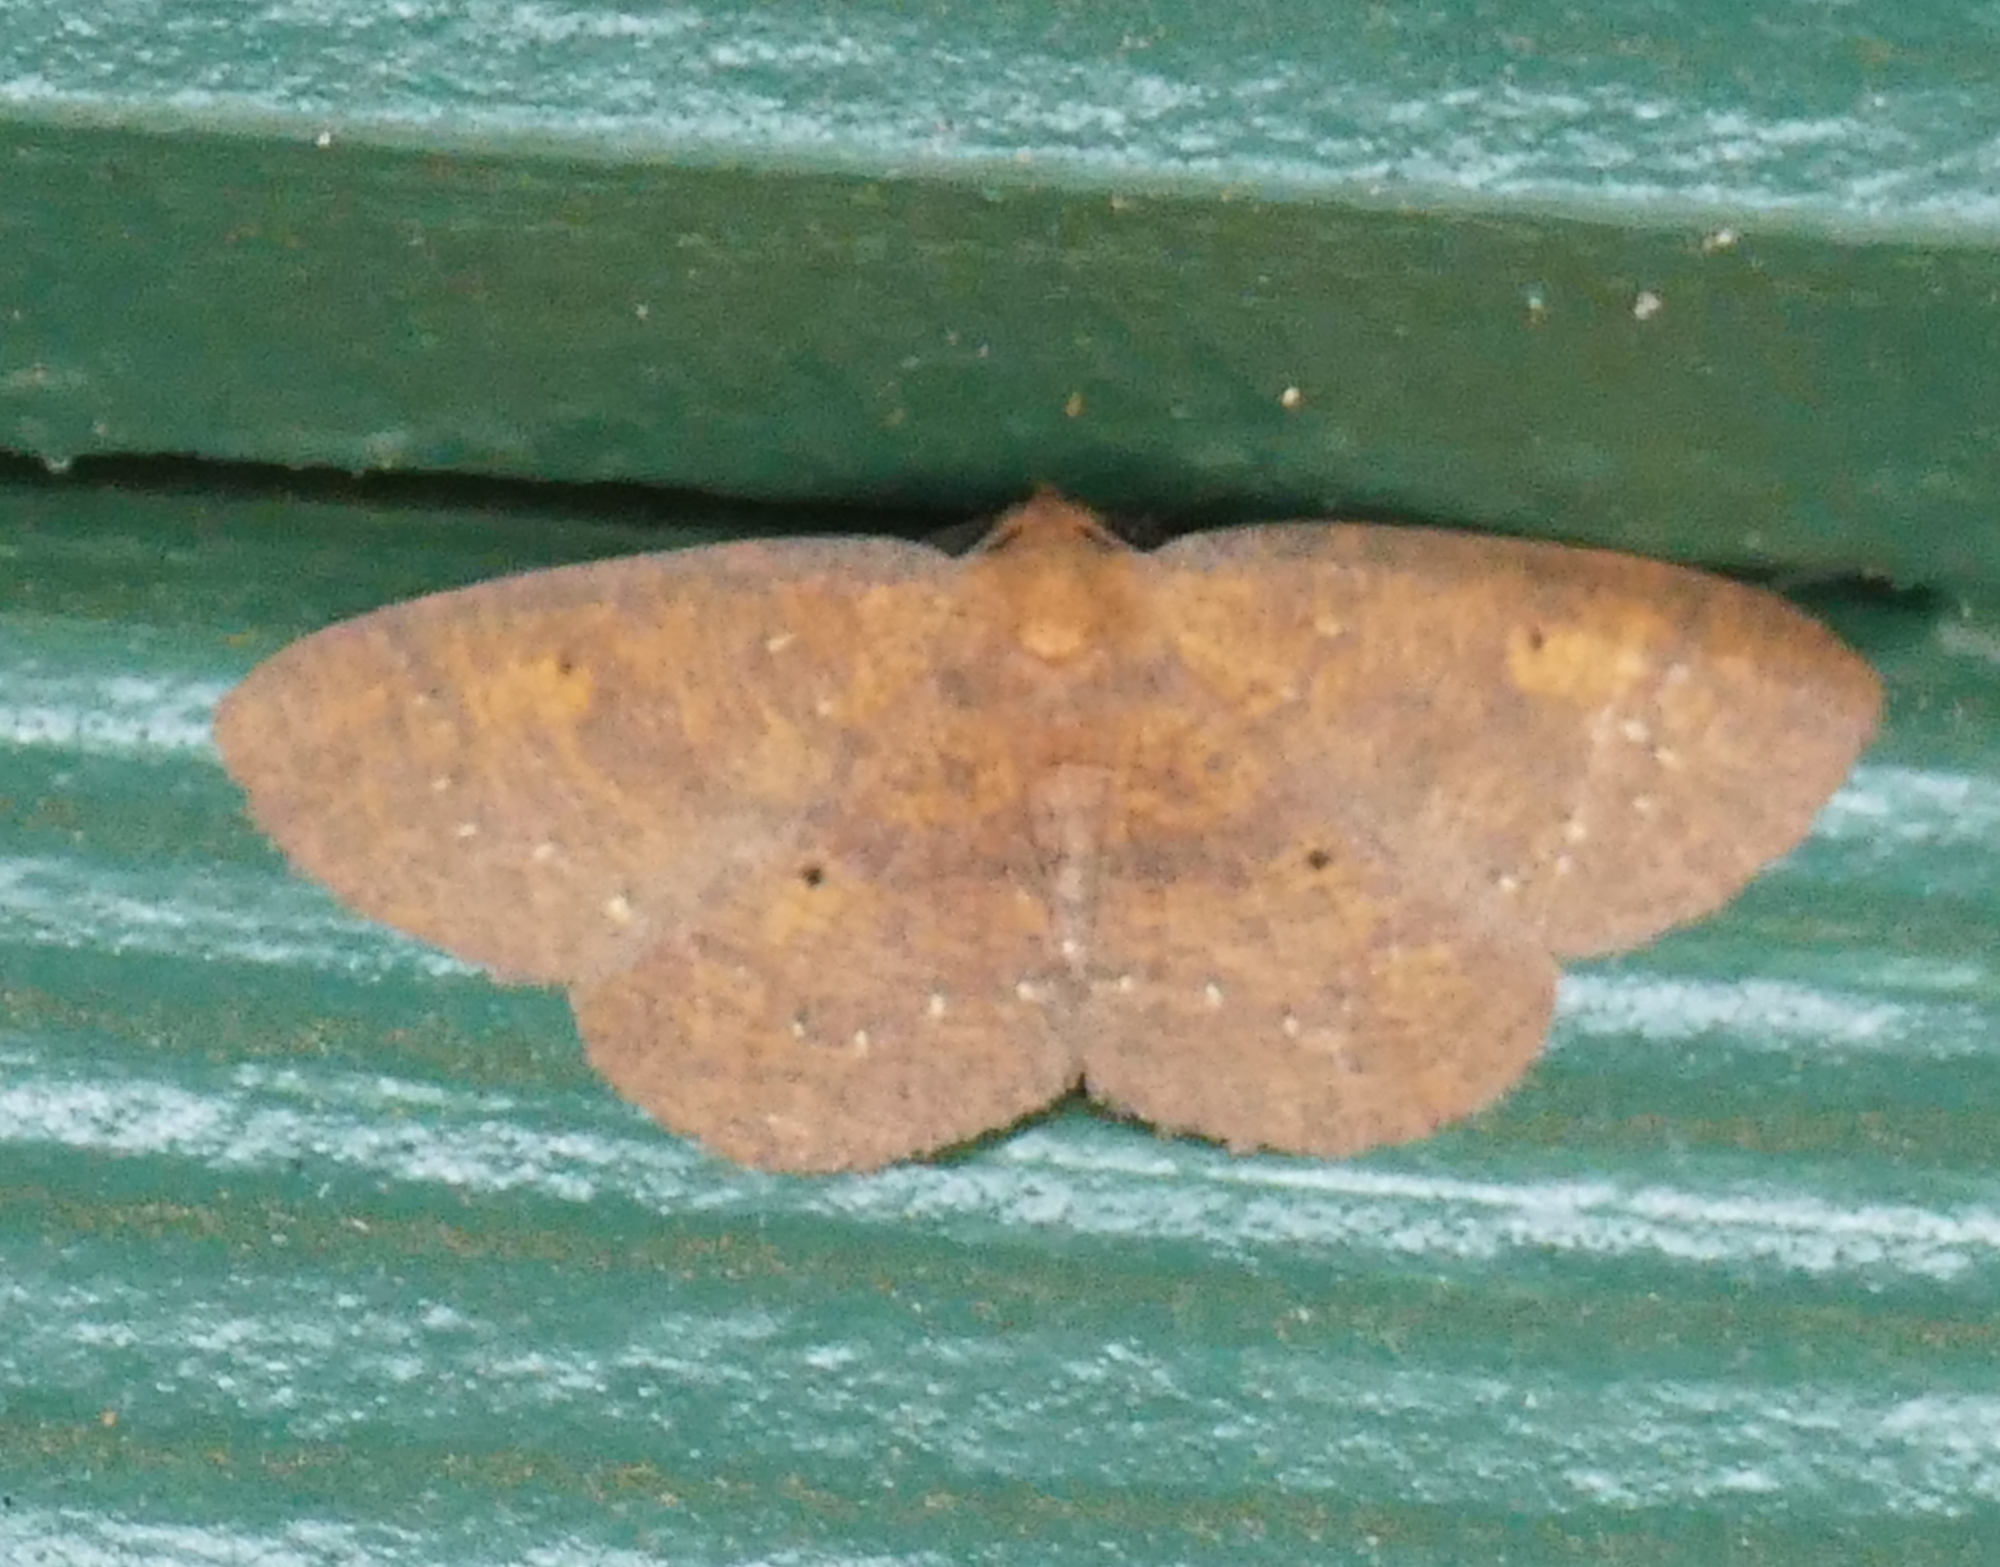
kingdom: Animalia
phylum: Arthropoda
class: Insecta
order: Lepidoptera
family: Geometridae
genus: Ilexia
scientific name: Ilexia intractata
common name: Black-dotted ruddy moth
